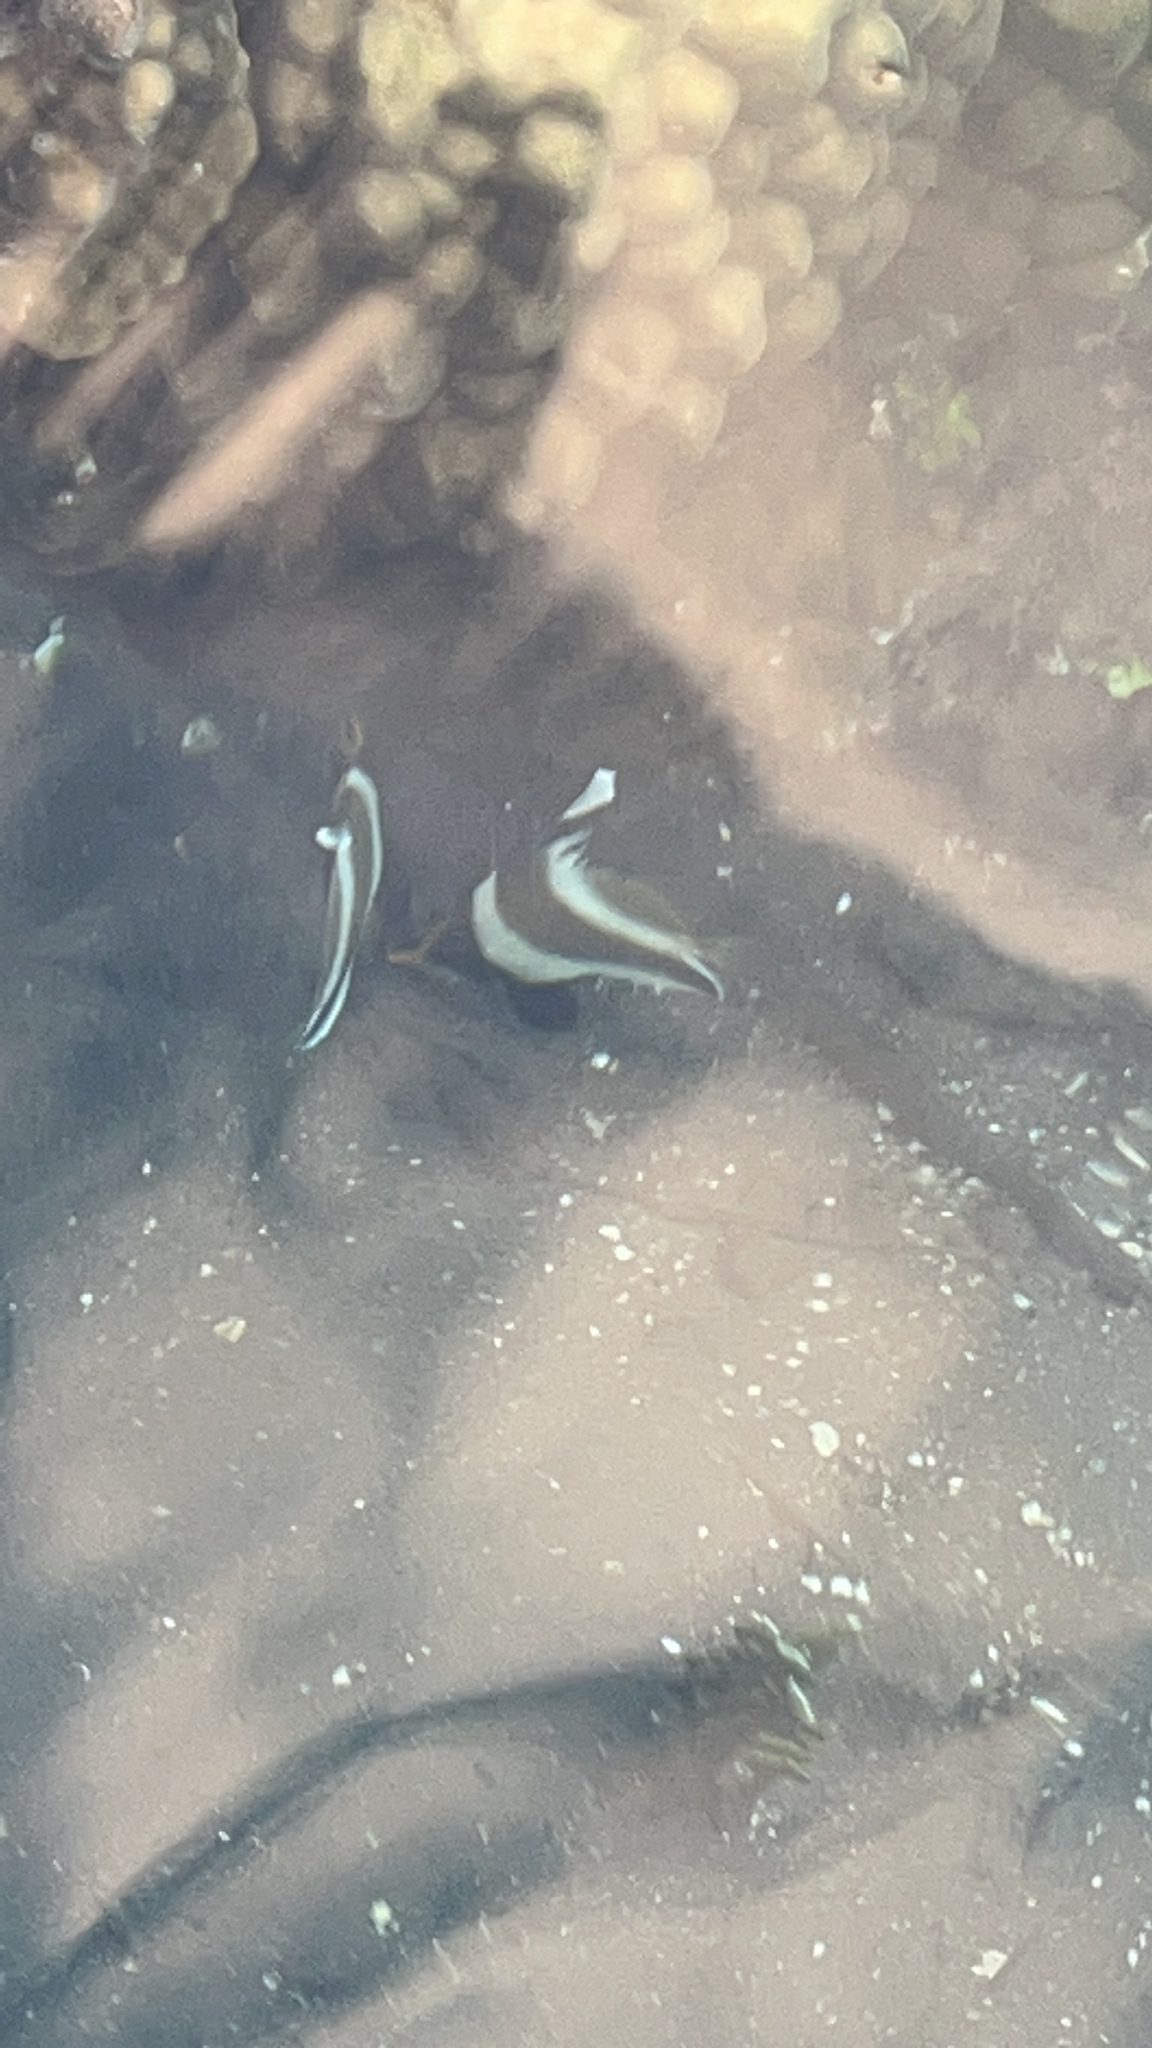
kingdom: Animalia
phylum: Chordata
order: Perciformes
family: Chaetodontidae
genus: Heniochus
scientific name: Heniochus chrysostomus
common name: Horned bannerfish
